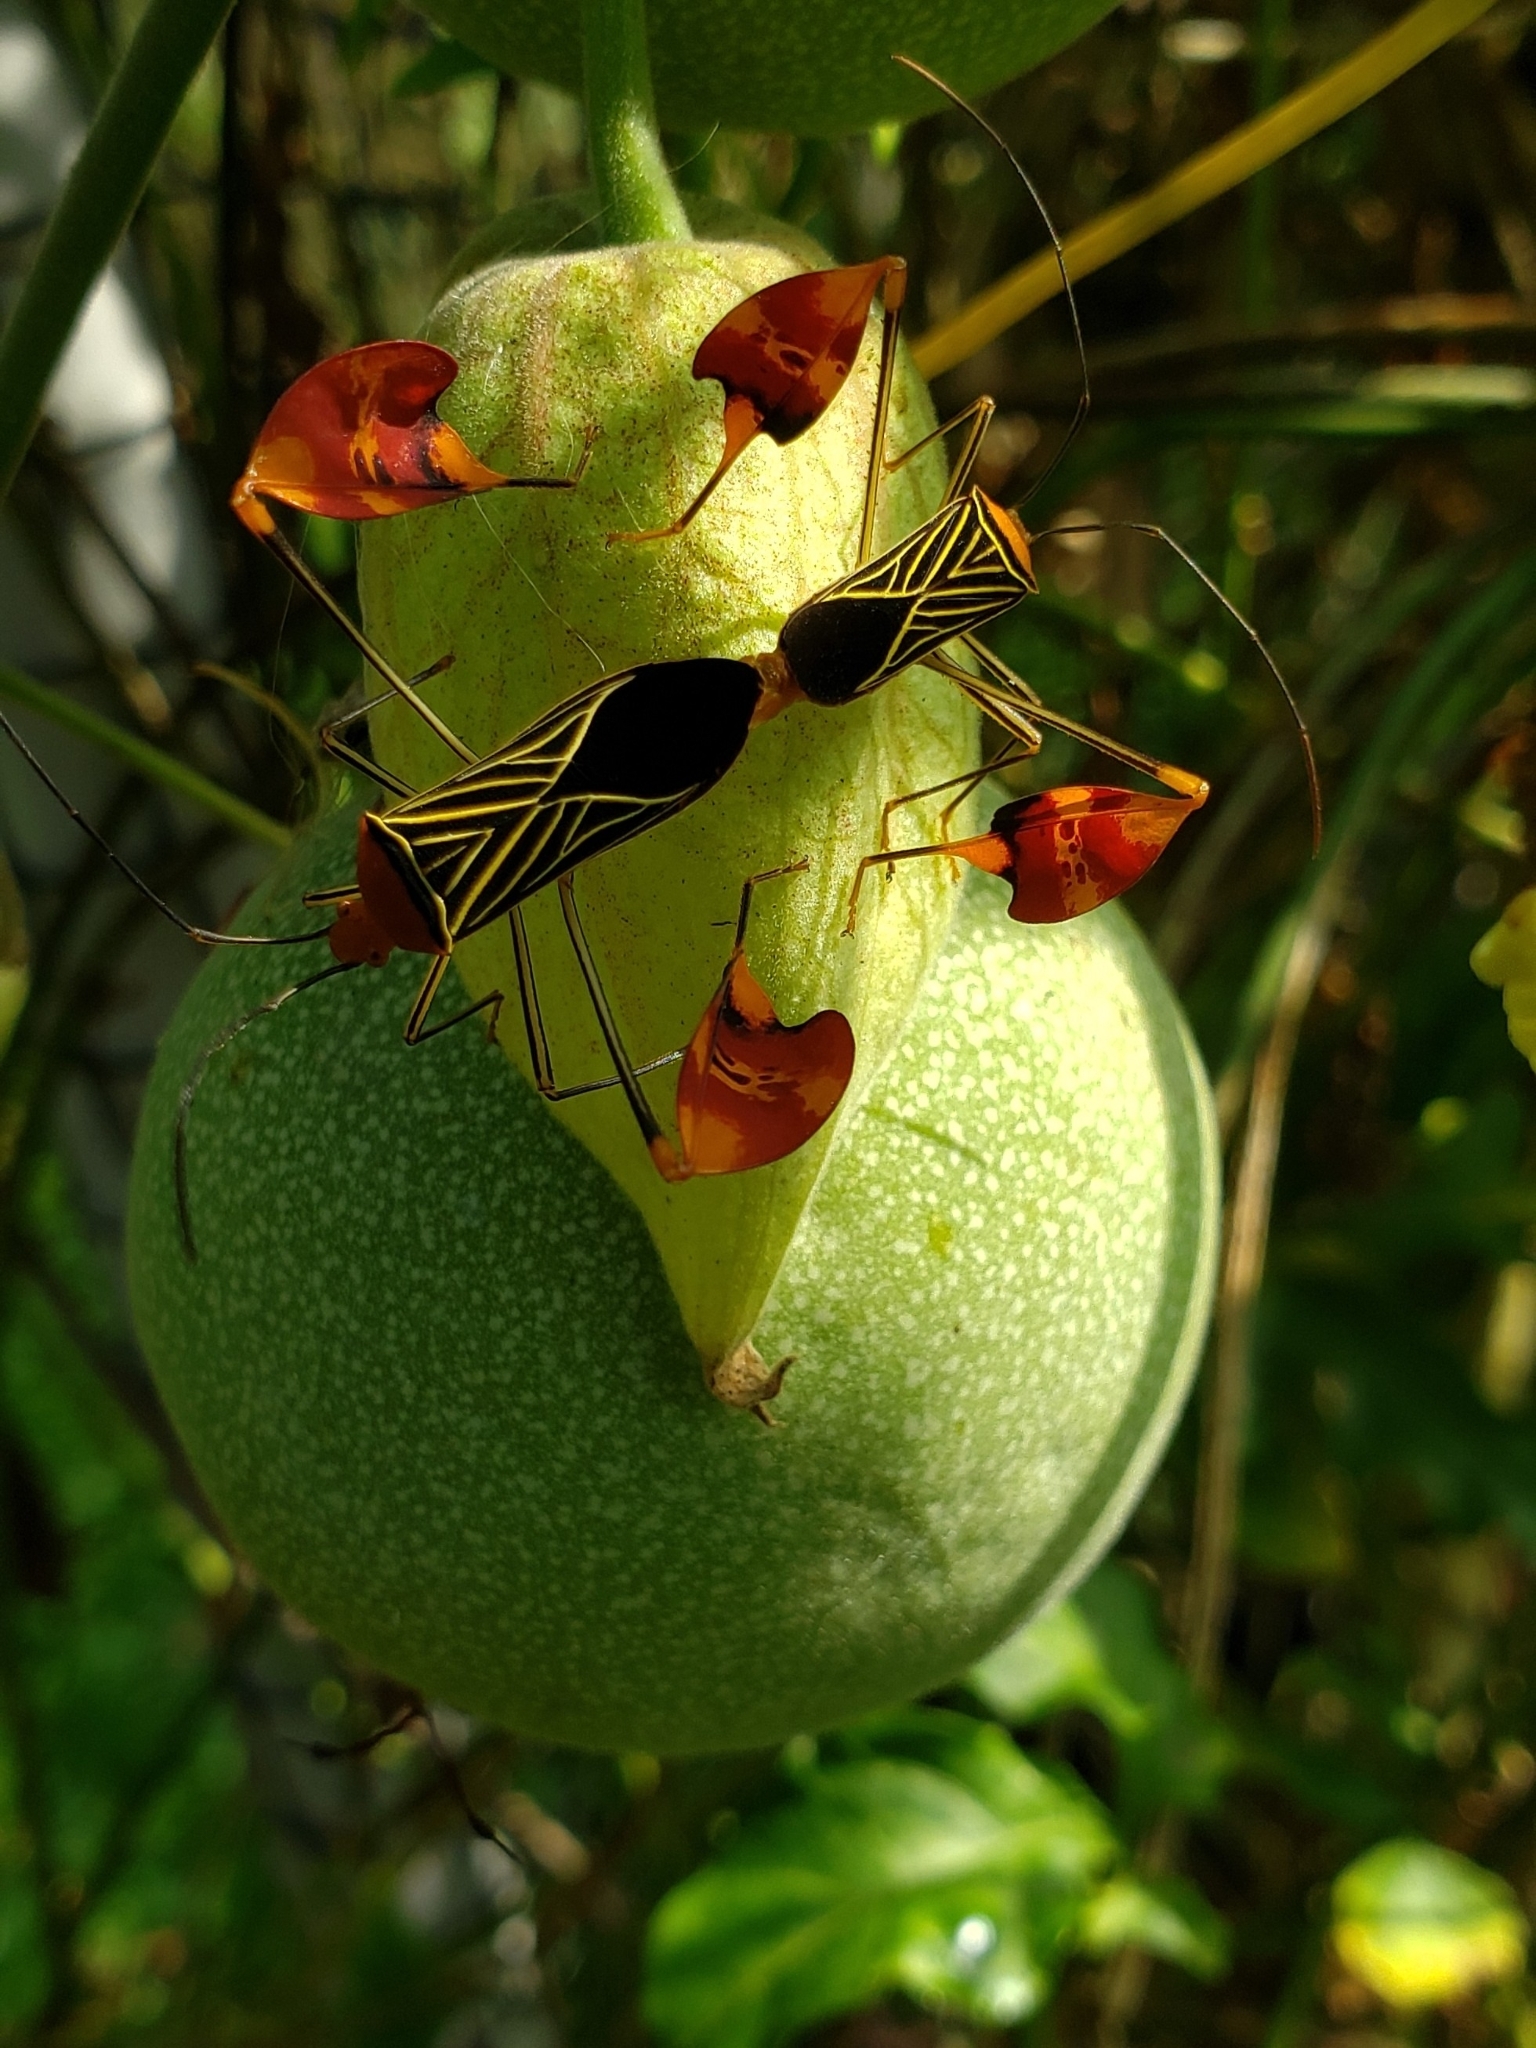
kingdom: Animalia
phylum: Arthropoda
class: Insecta
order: Hemiptera
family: Coreidae
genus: Bitta
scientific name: Bitta
